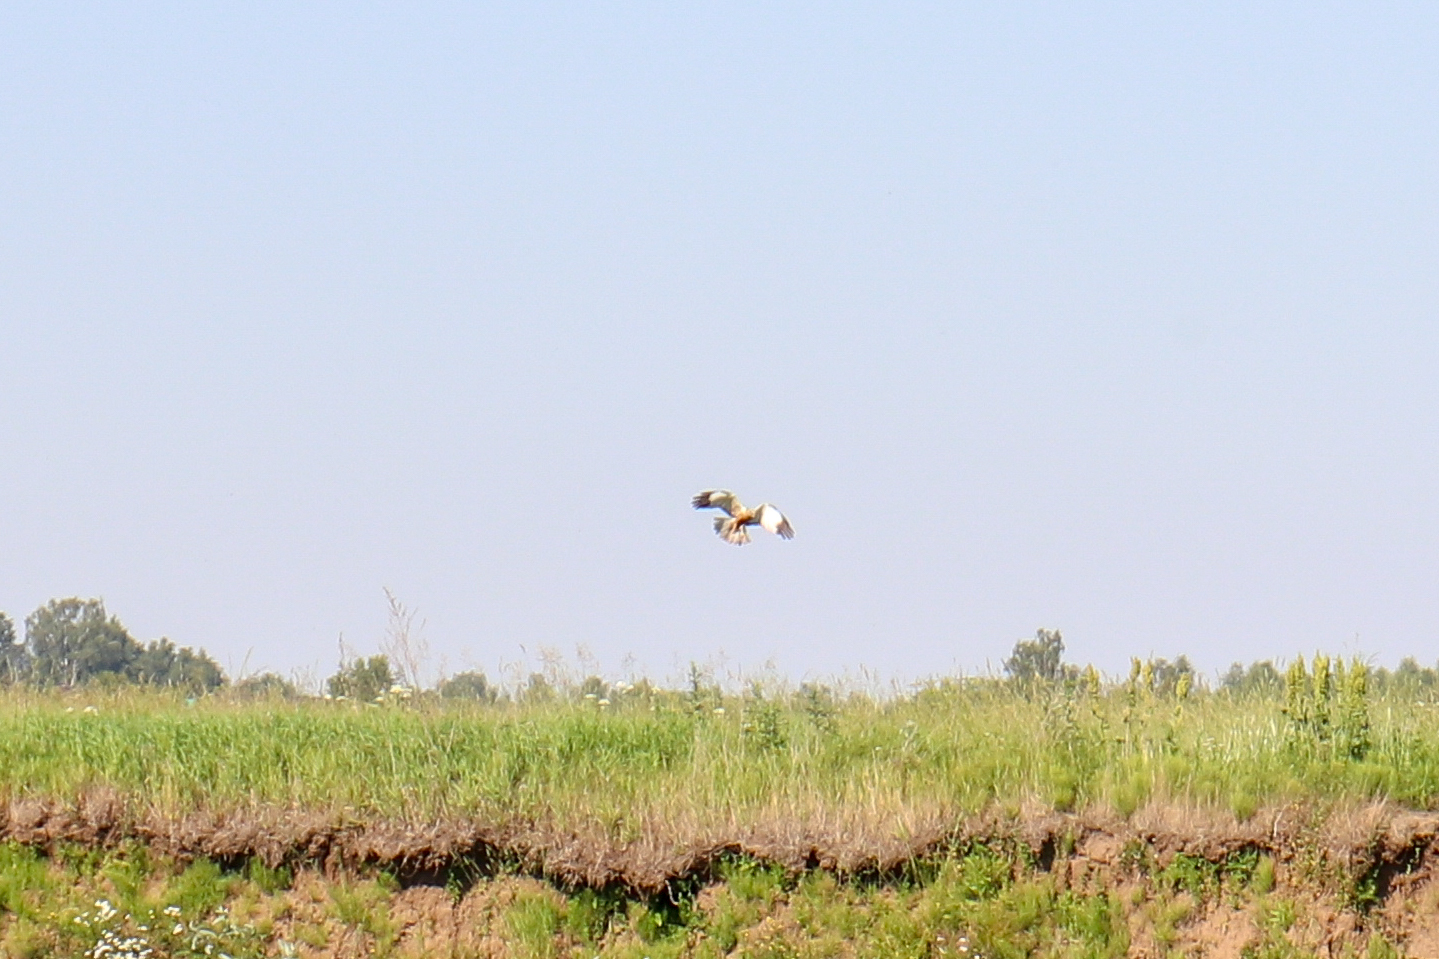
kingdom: Animalia
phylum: Chordata
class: Aves
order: Accipitriformes
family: Accipitridae
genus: Circus
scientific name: Circus aeruginosus
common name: Western marsh harrier
